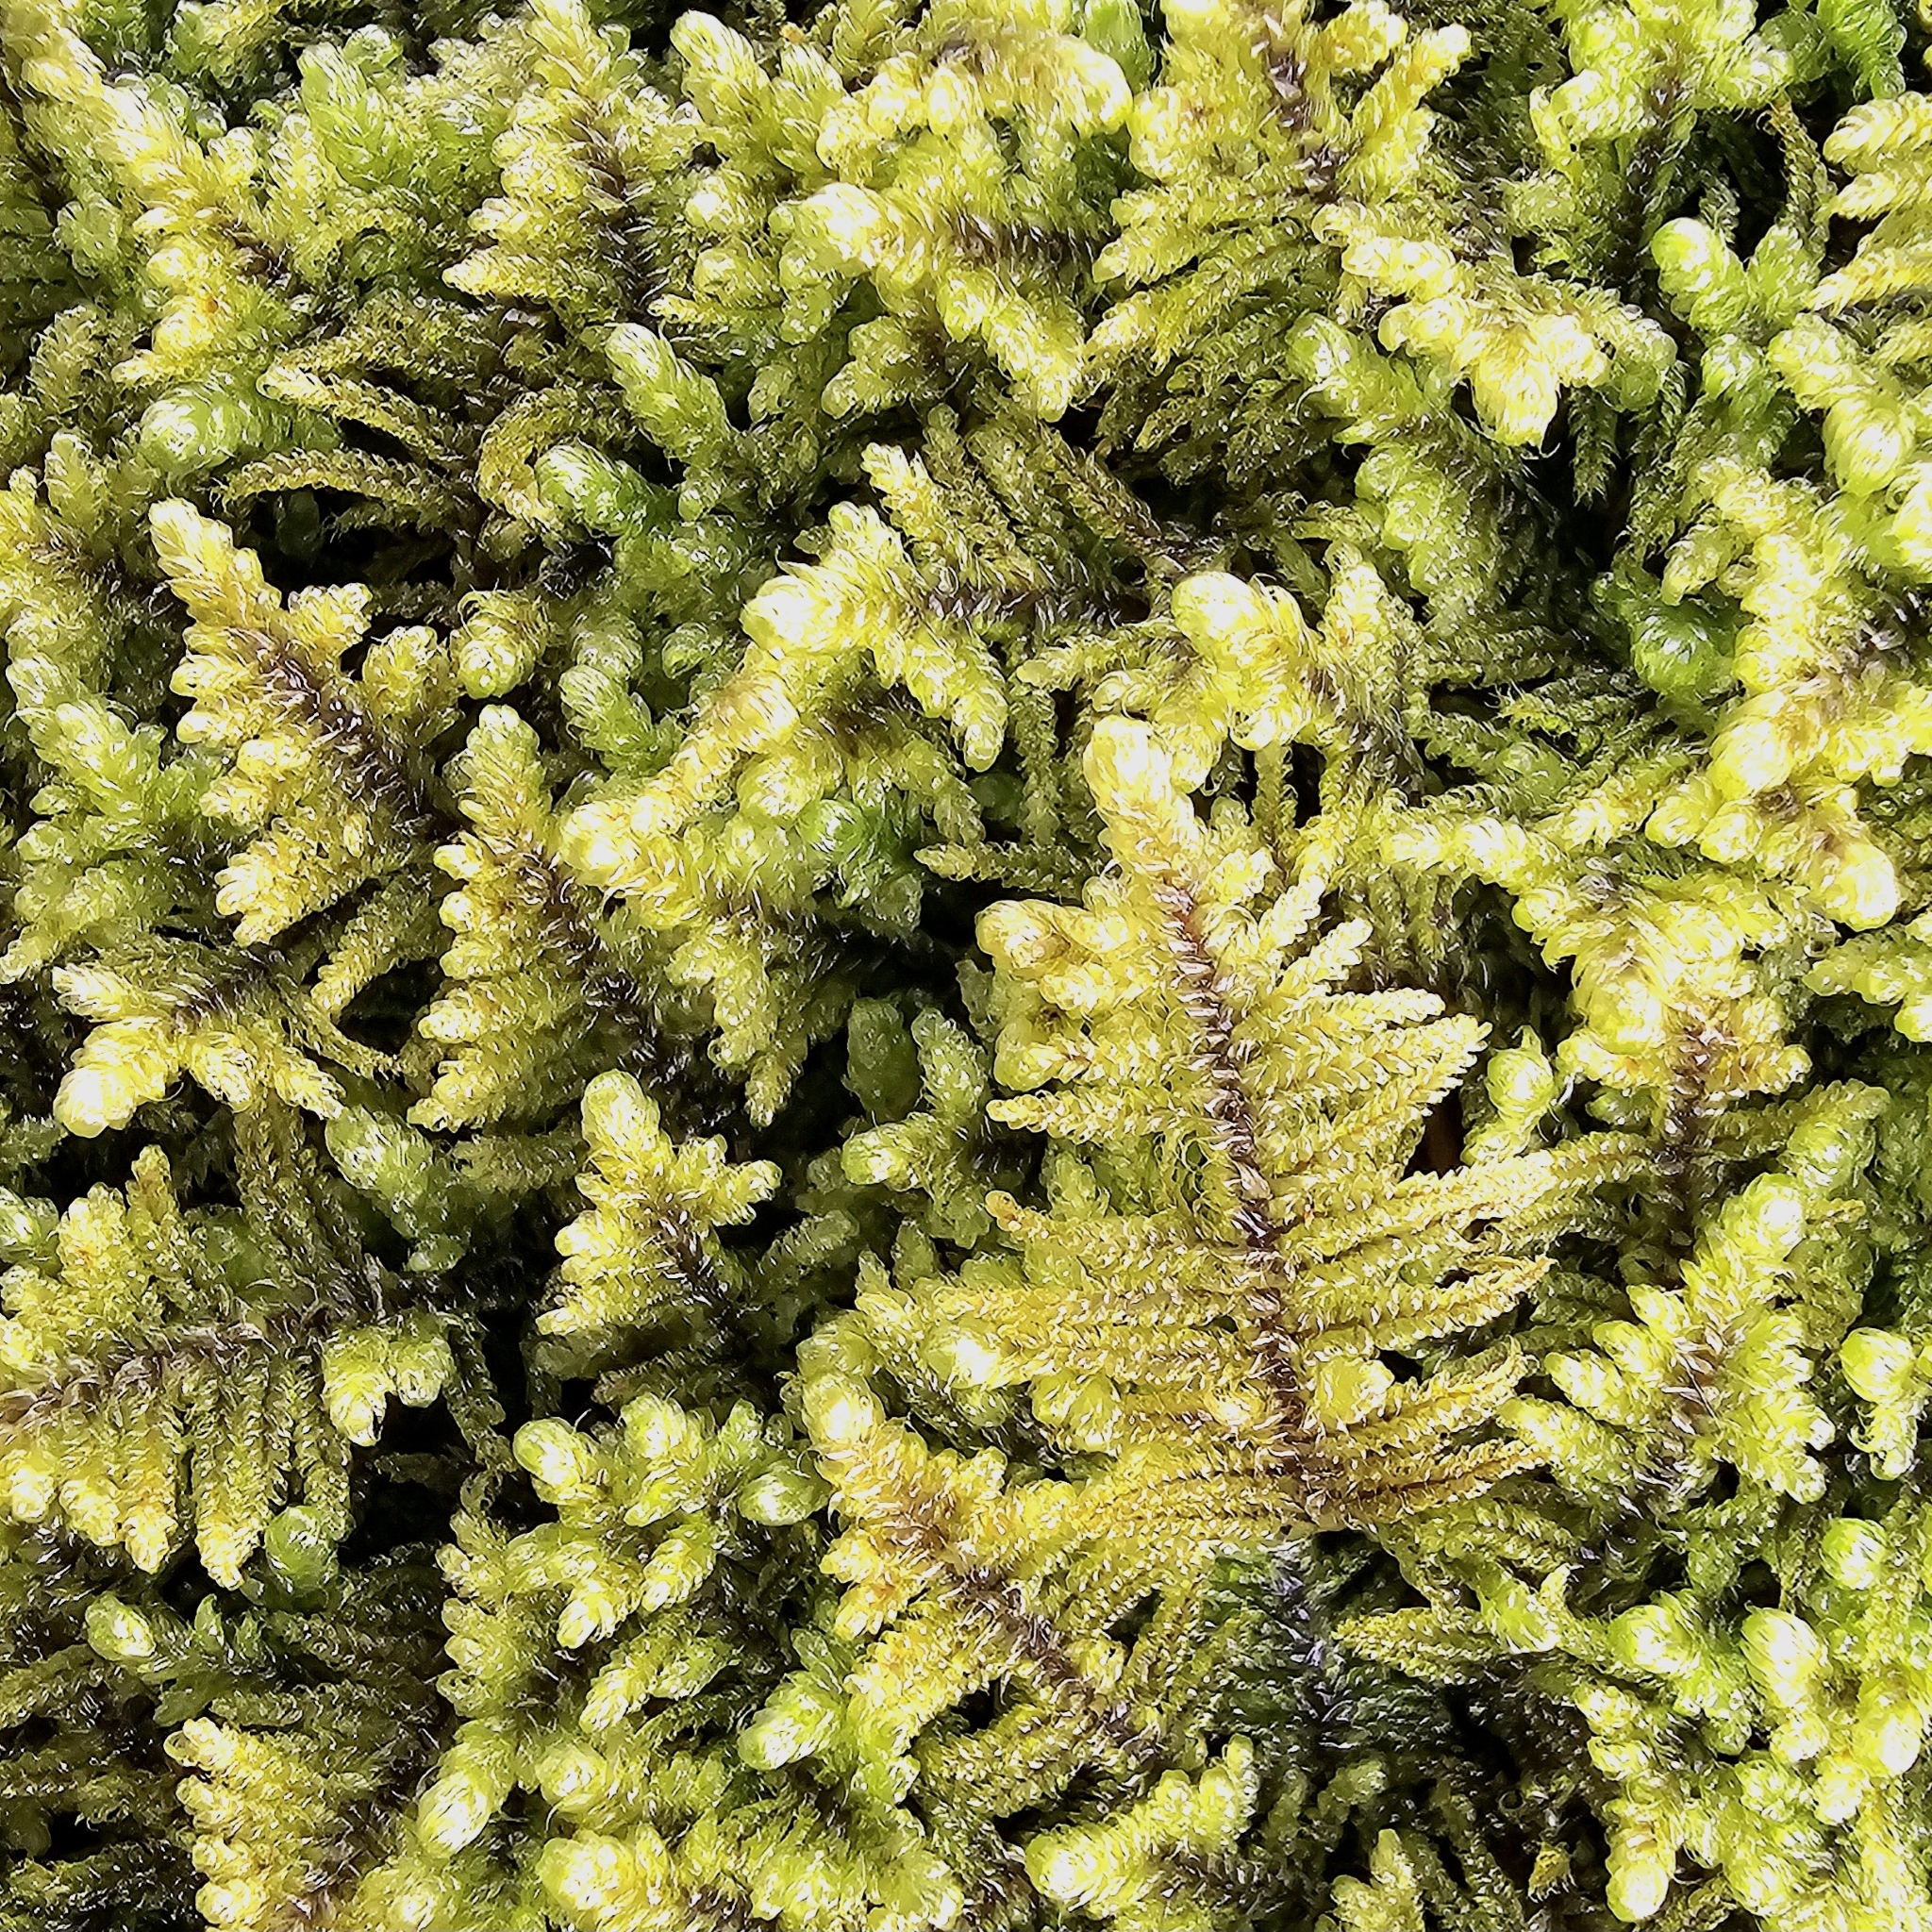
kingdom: Plantae
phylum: Bryophyta
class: Bryopsida
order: Hypnales
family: Callicladiaceae
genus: Callicladium
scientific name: Callicladium imponens
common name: Brocade moss
